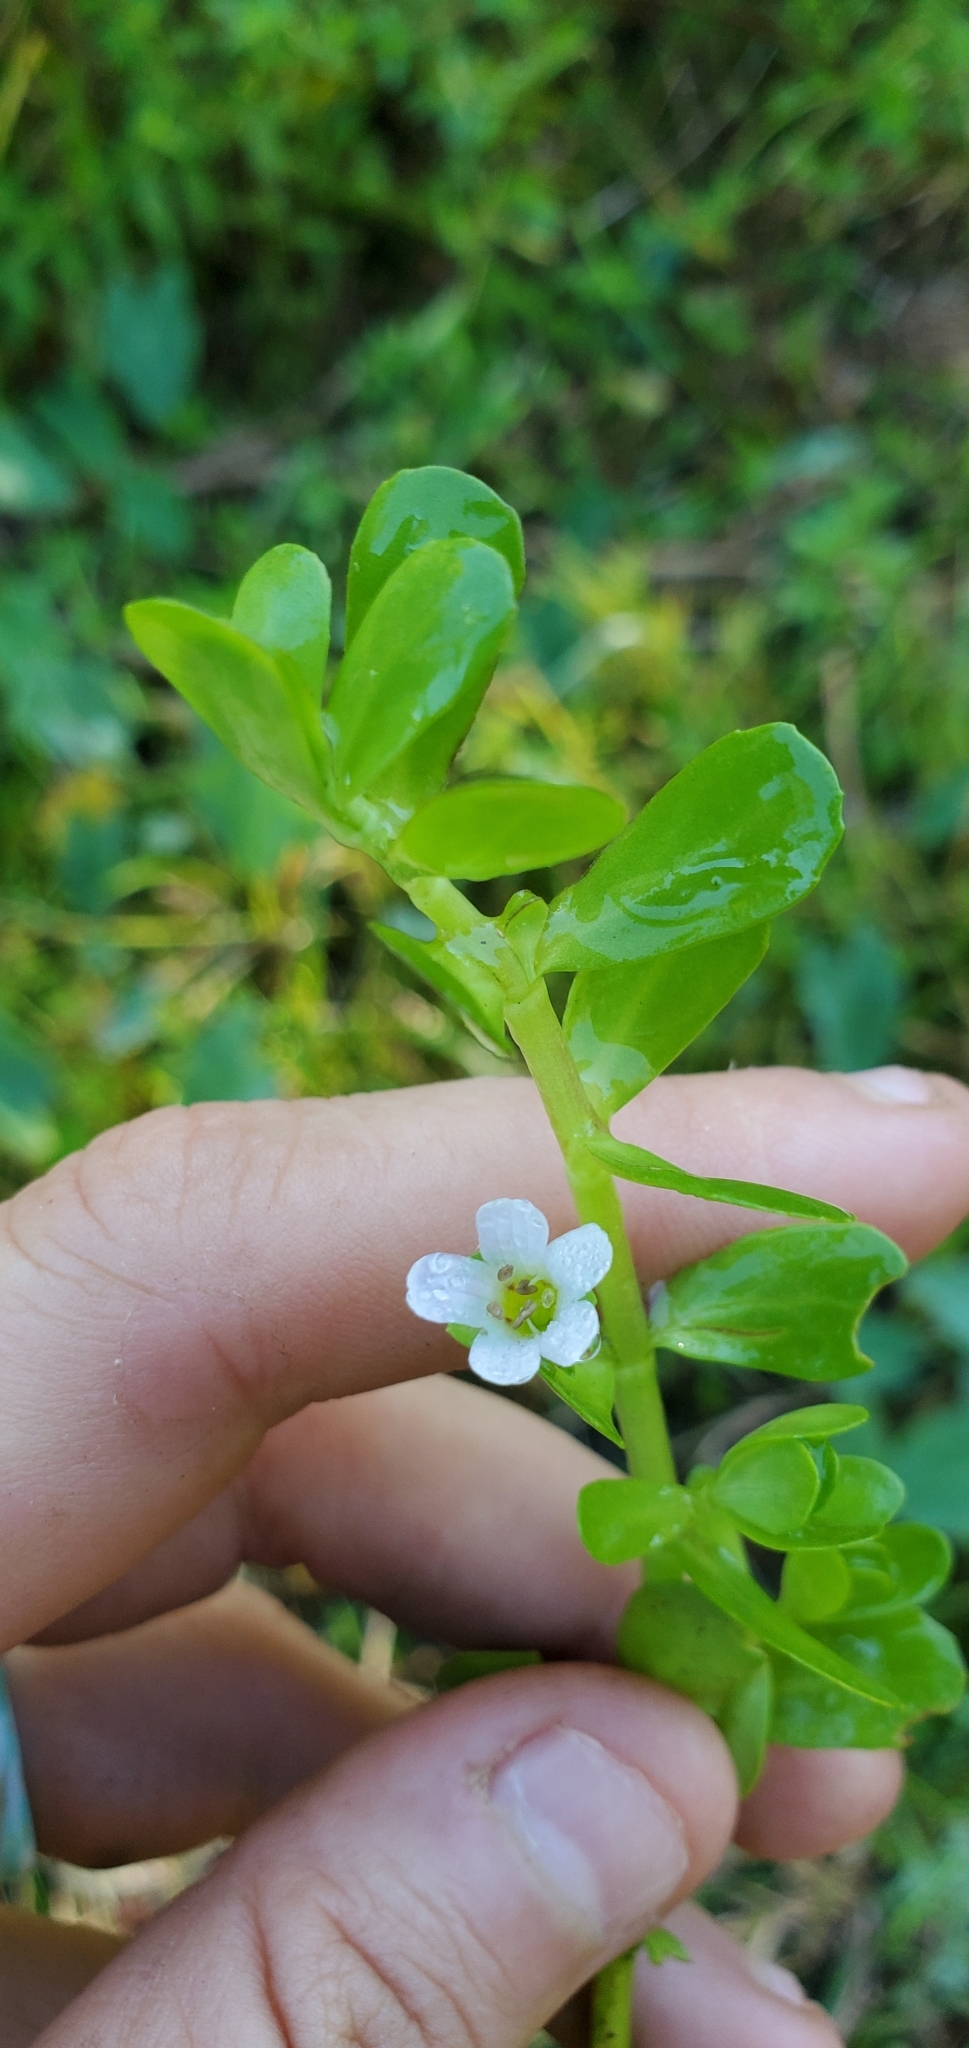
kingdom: Plantae
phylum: Tracheophyta
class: Magnoliopsida
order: Lamiales
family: Plantaginaceae
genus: Bacopa
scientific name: Bacopa monnieri
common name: Indian-pennywort
